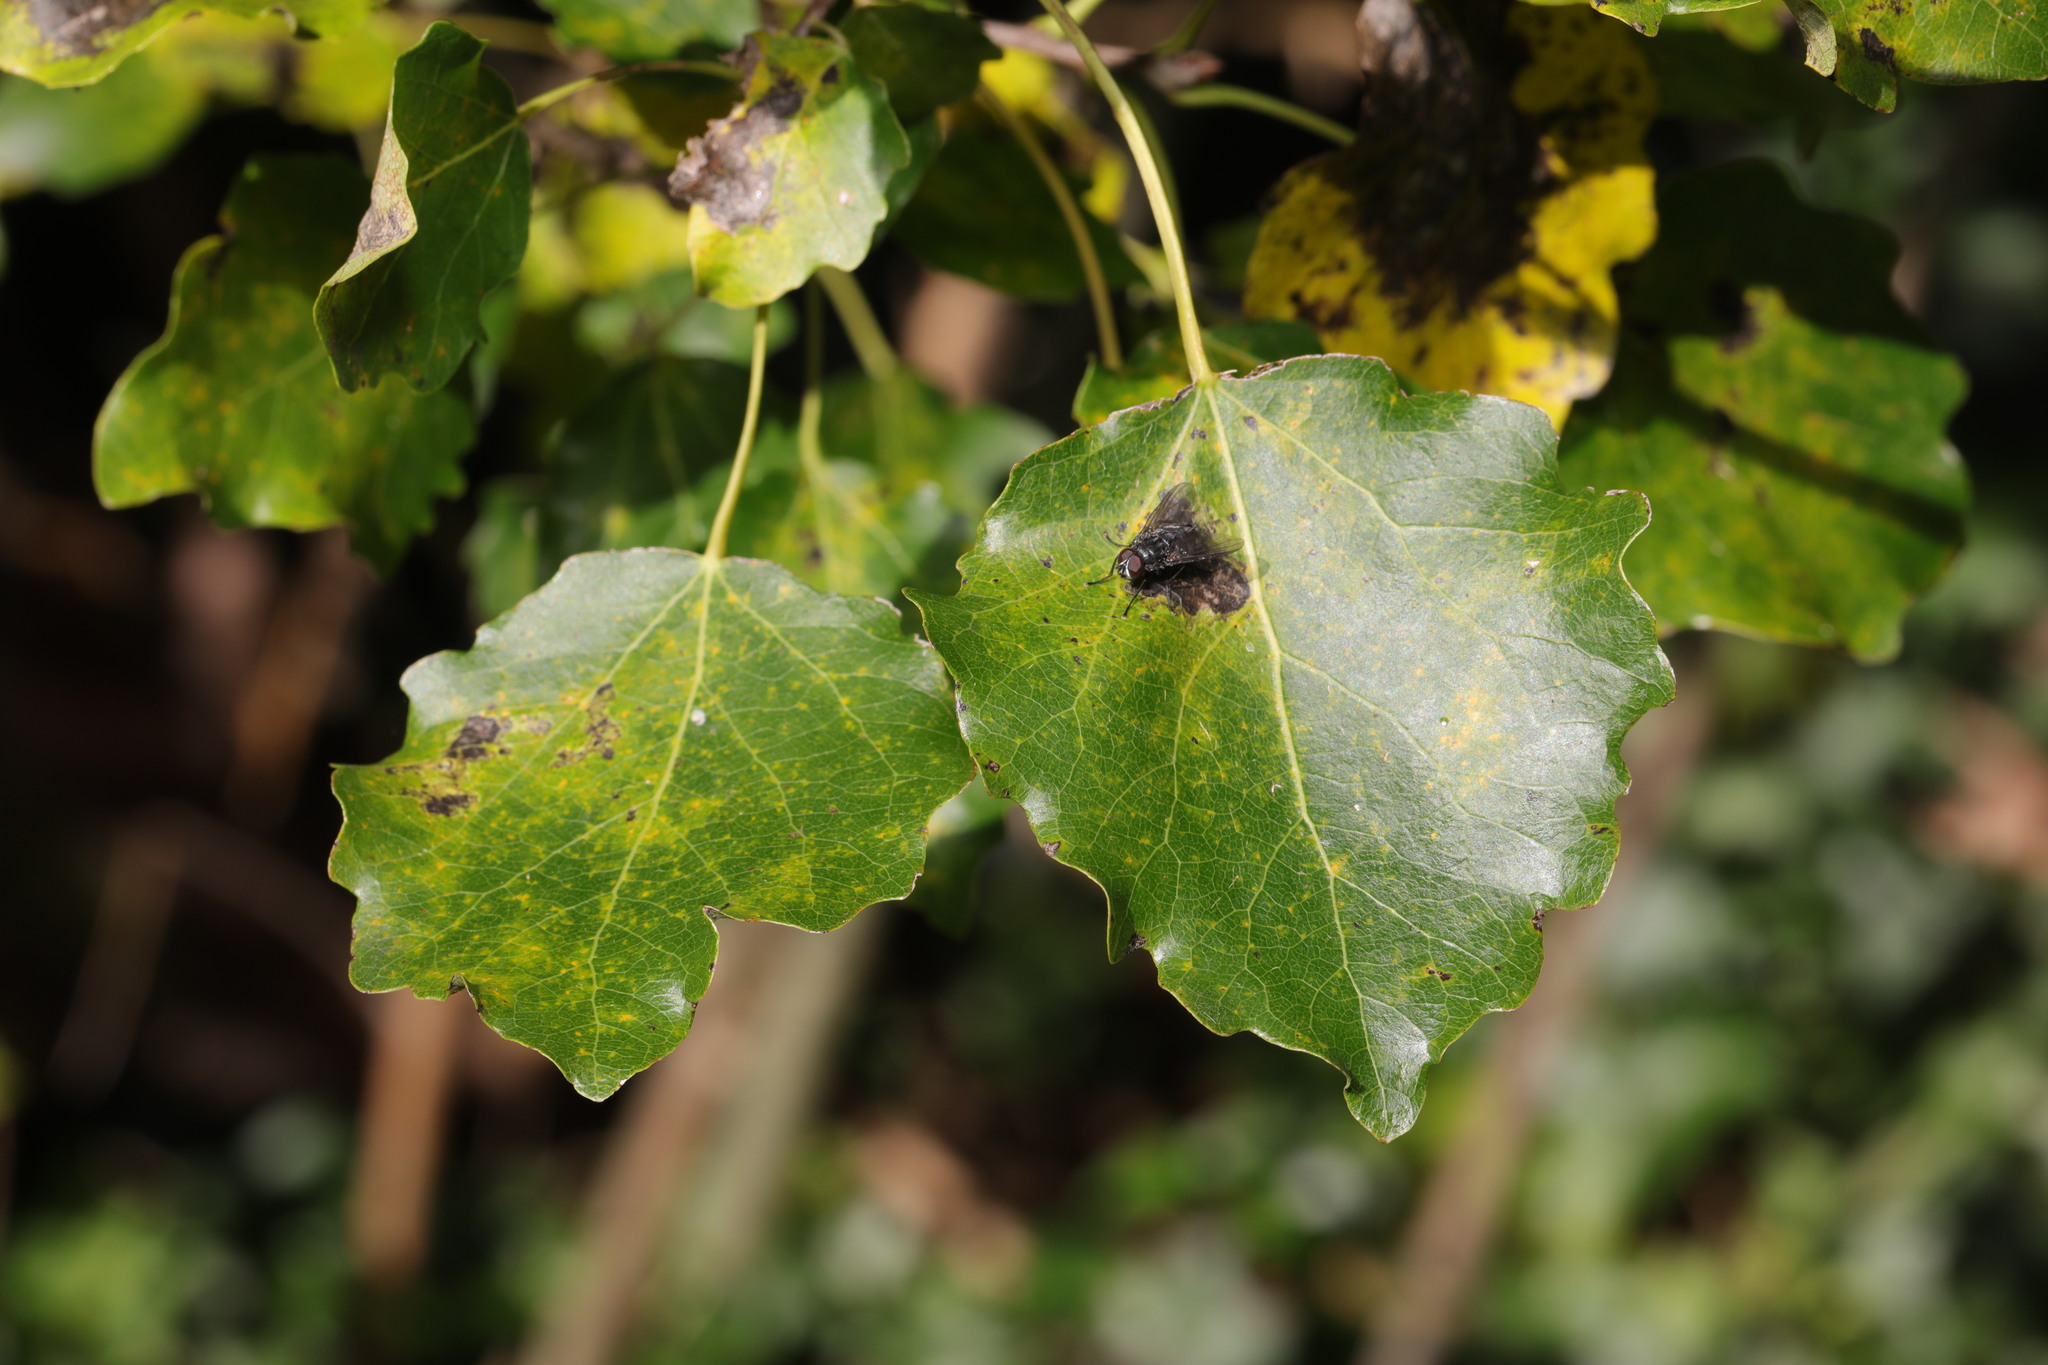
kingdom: Plantae
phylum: Tracheophyta
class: Magnoliopsida
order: Malpighiales
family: Salicaceae
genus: Populus
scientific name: Populus tremula
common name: European aspen
